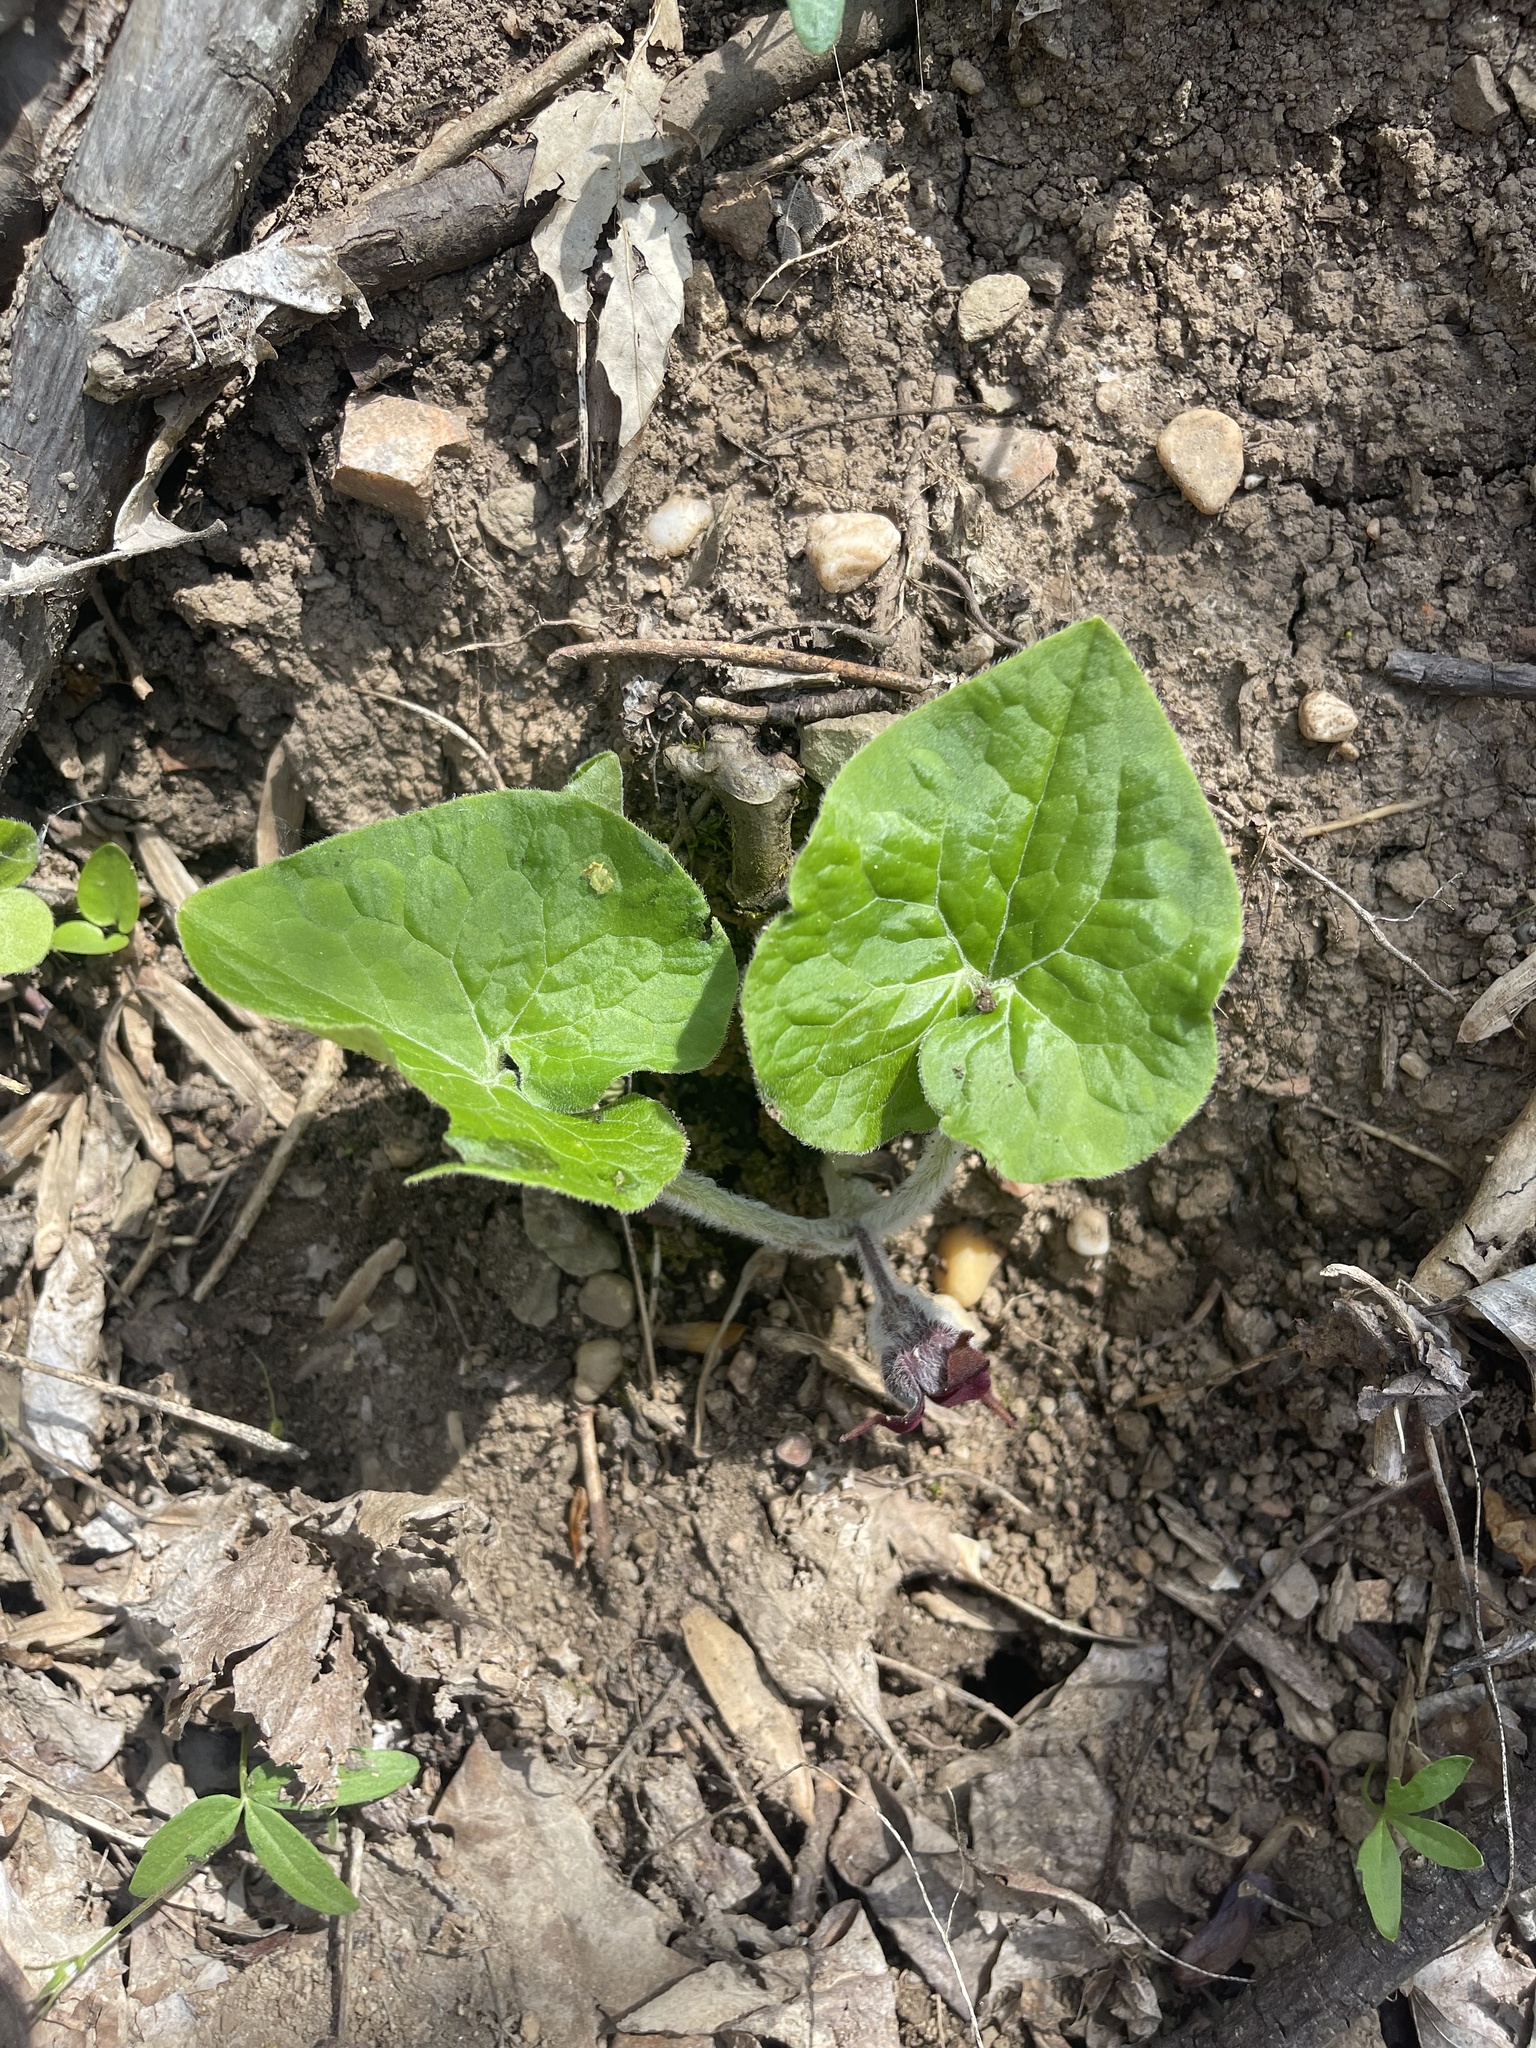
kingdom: Plantae
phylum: Tracheophyta
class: Magnoliopsida
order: Piperales
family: Aristolochiaceae
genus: Asarum
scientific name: Asarum canadense
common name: Wild ginger
